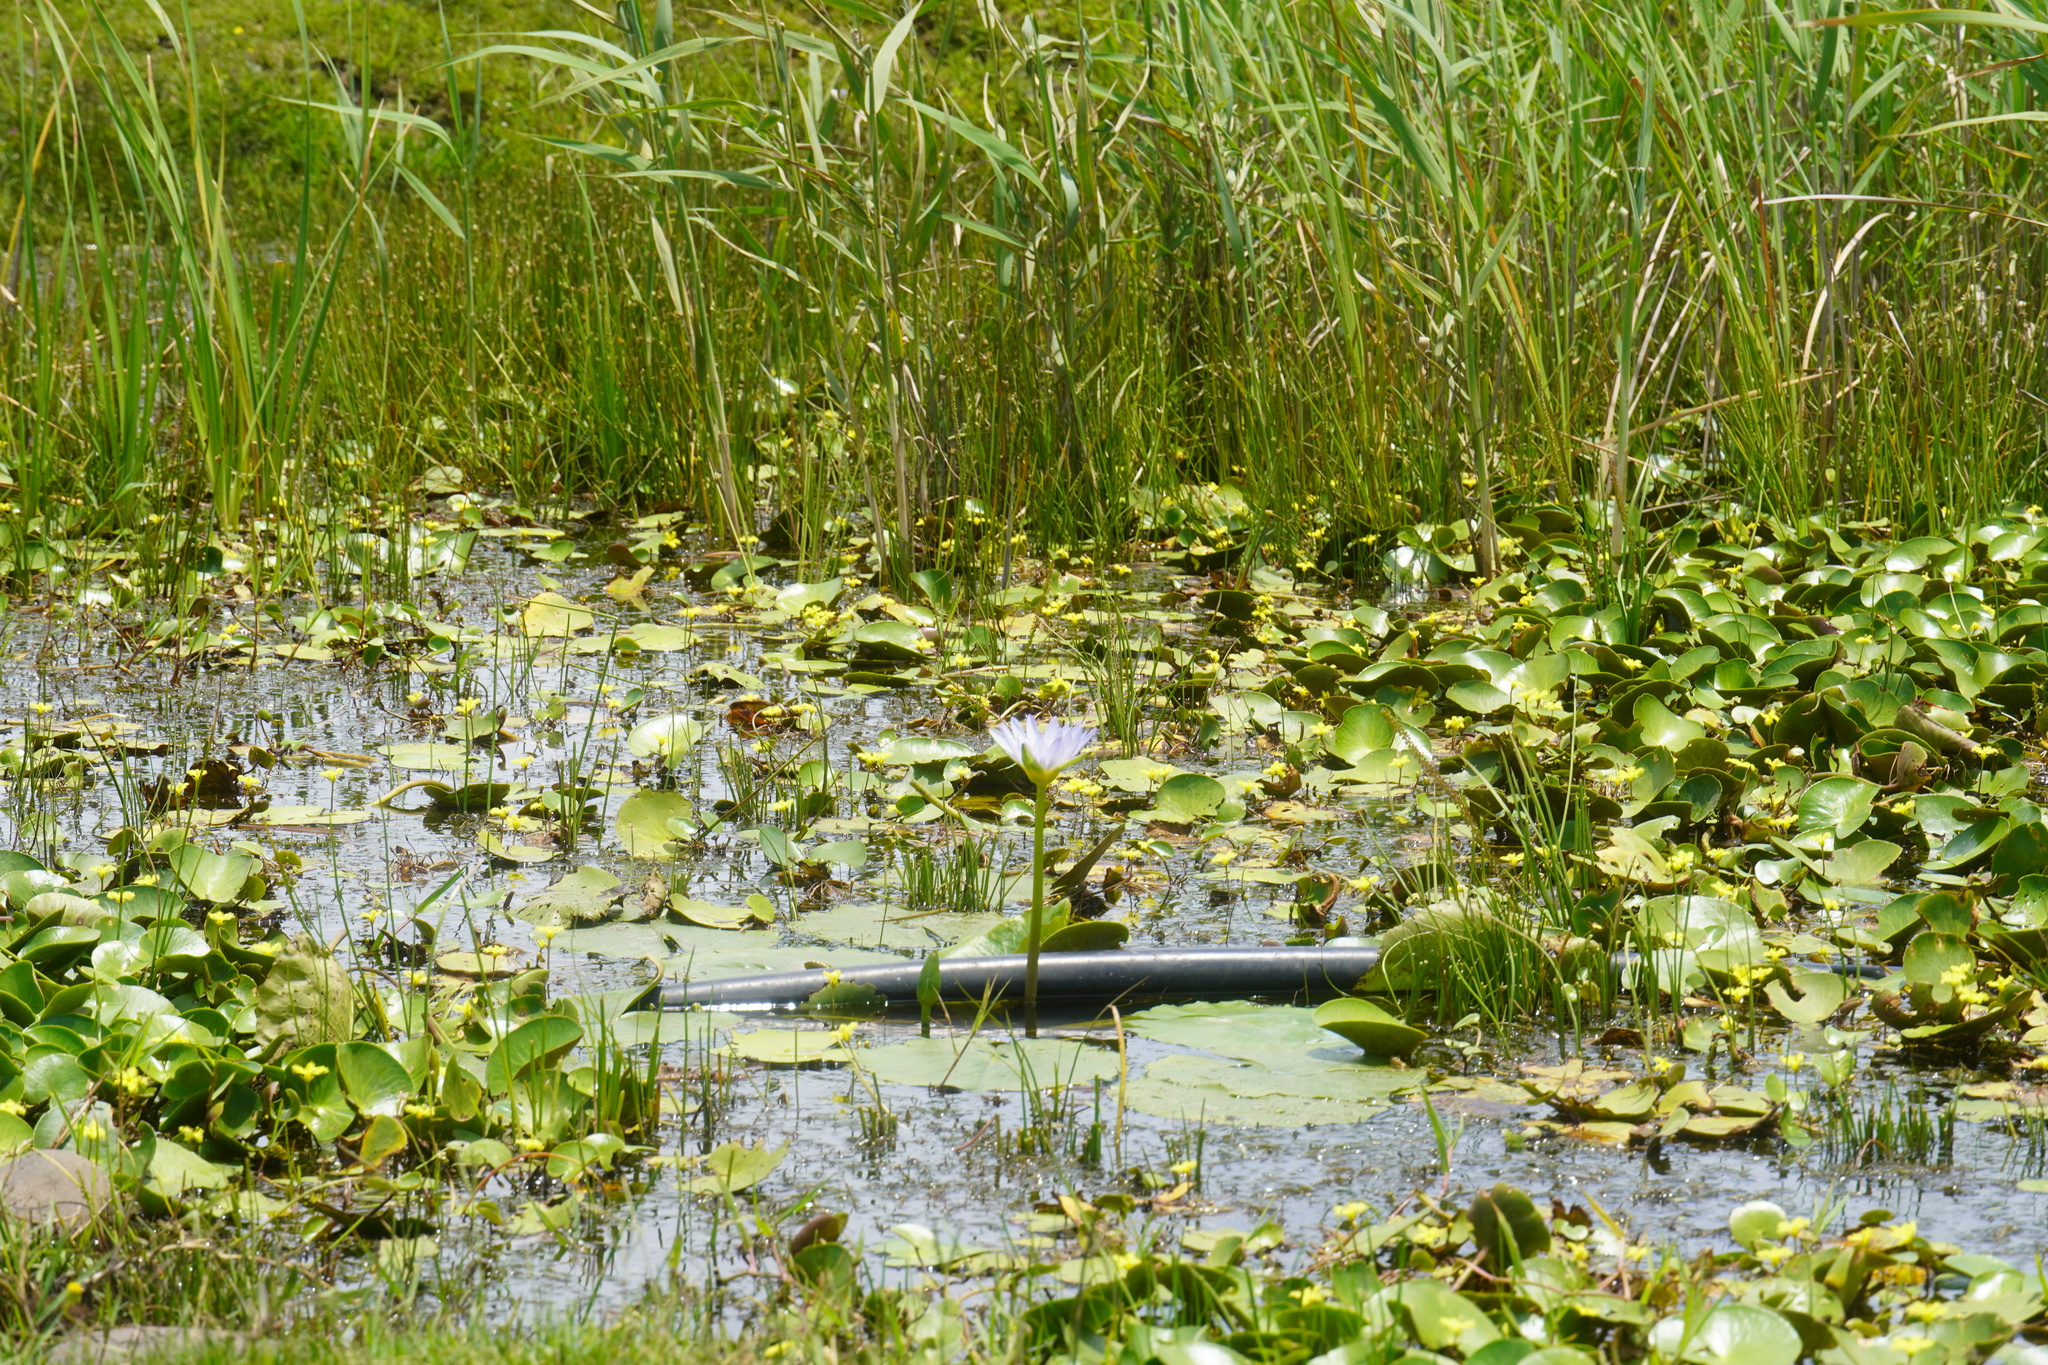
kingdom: Plantae
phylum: Tracheophyta
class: Magnoliopsida
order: Nymphaeales
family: Nymphaeaceae
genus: Nymphaea
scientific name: Nymphaea nouchali
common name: Blue lotus
